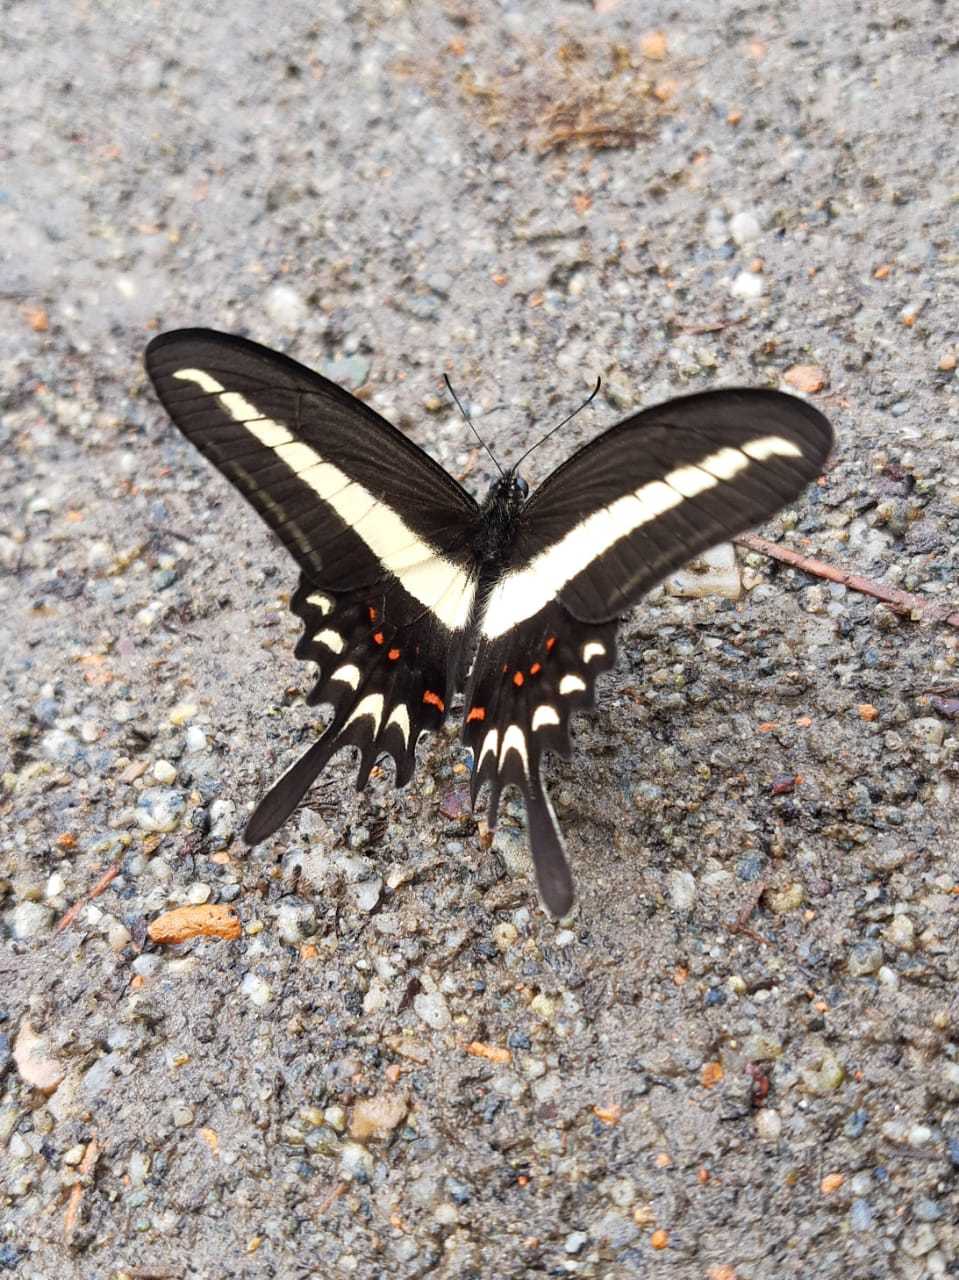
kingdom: Animalia
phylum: Arthropoda
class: Insecta
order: Lepidoptera
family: Papilionidae
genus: Heraclides
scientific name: Heraclides hectorides
